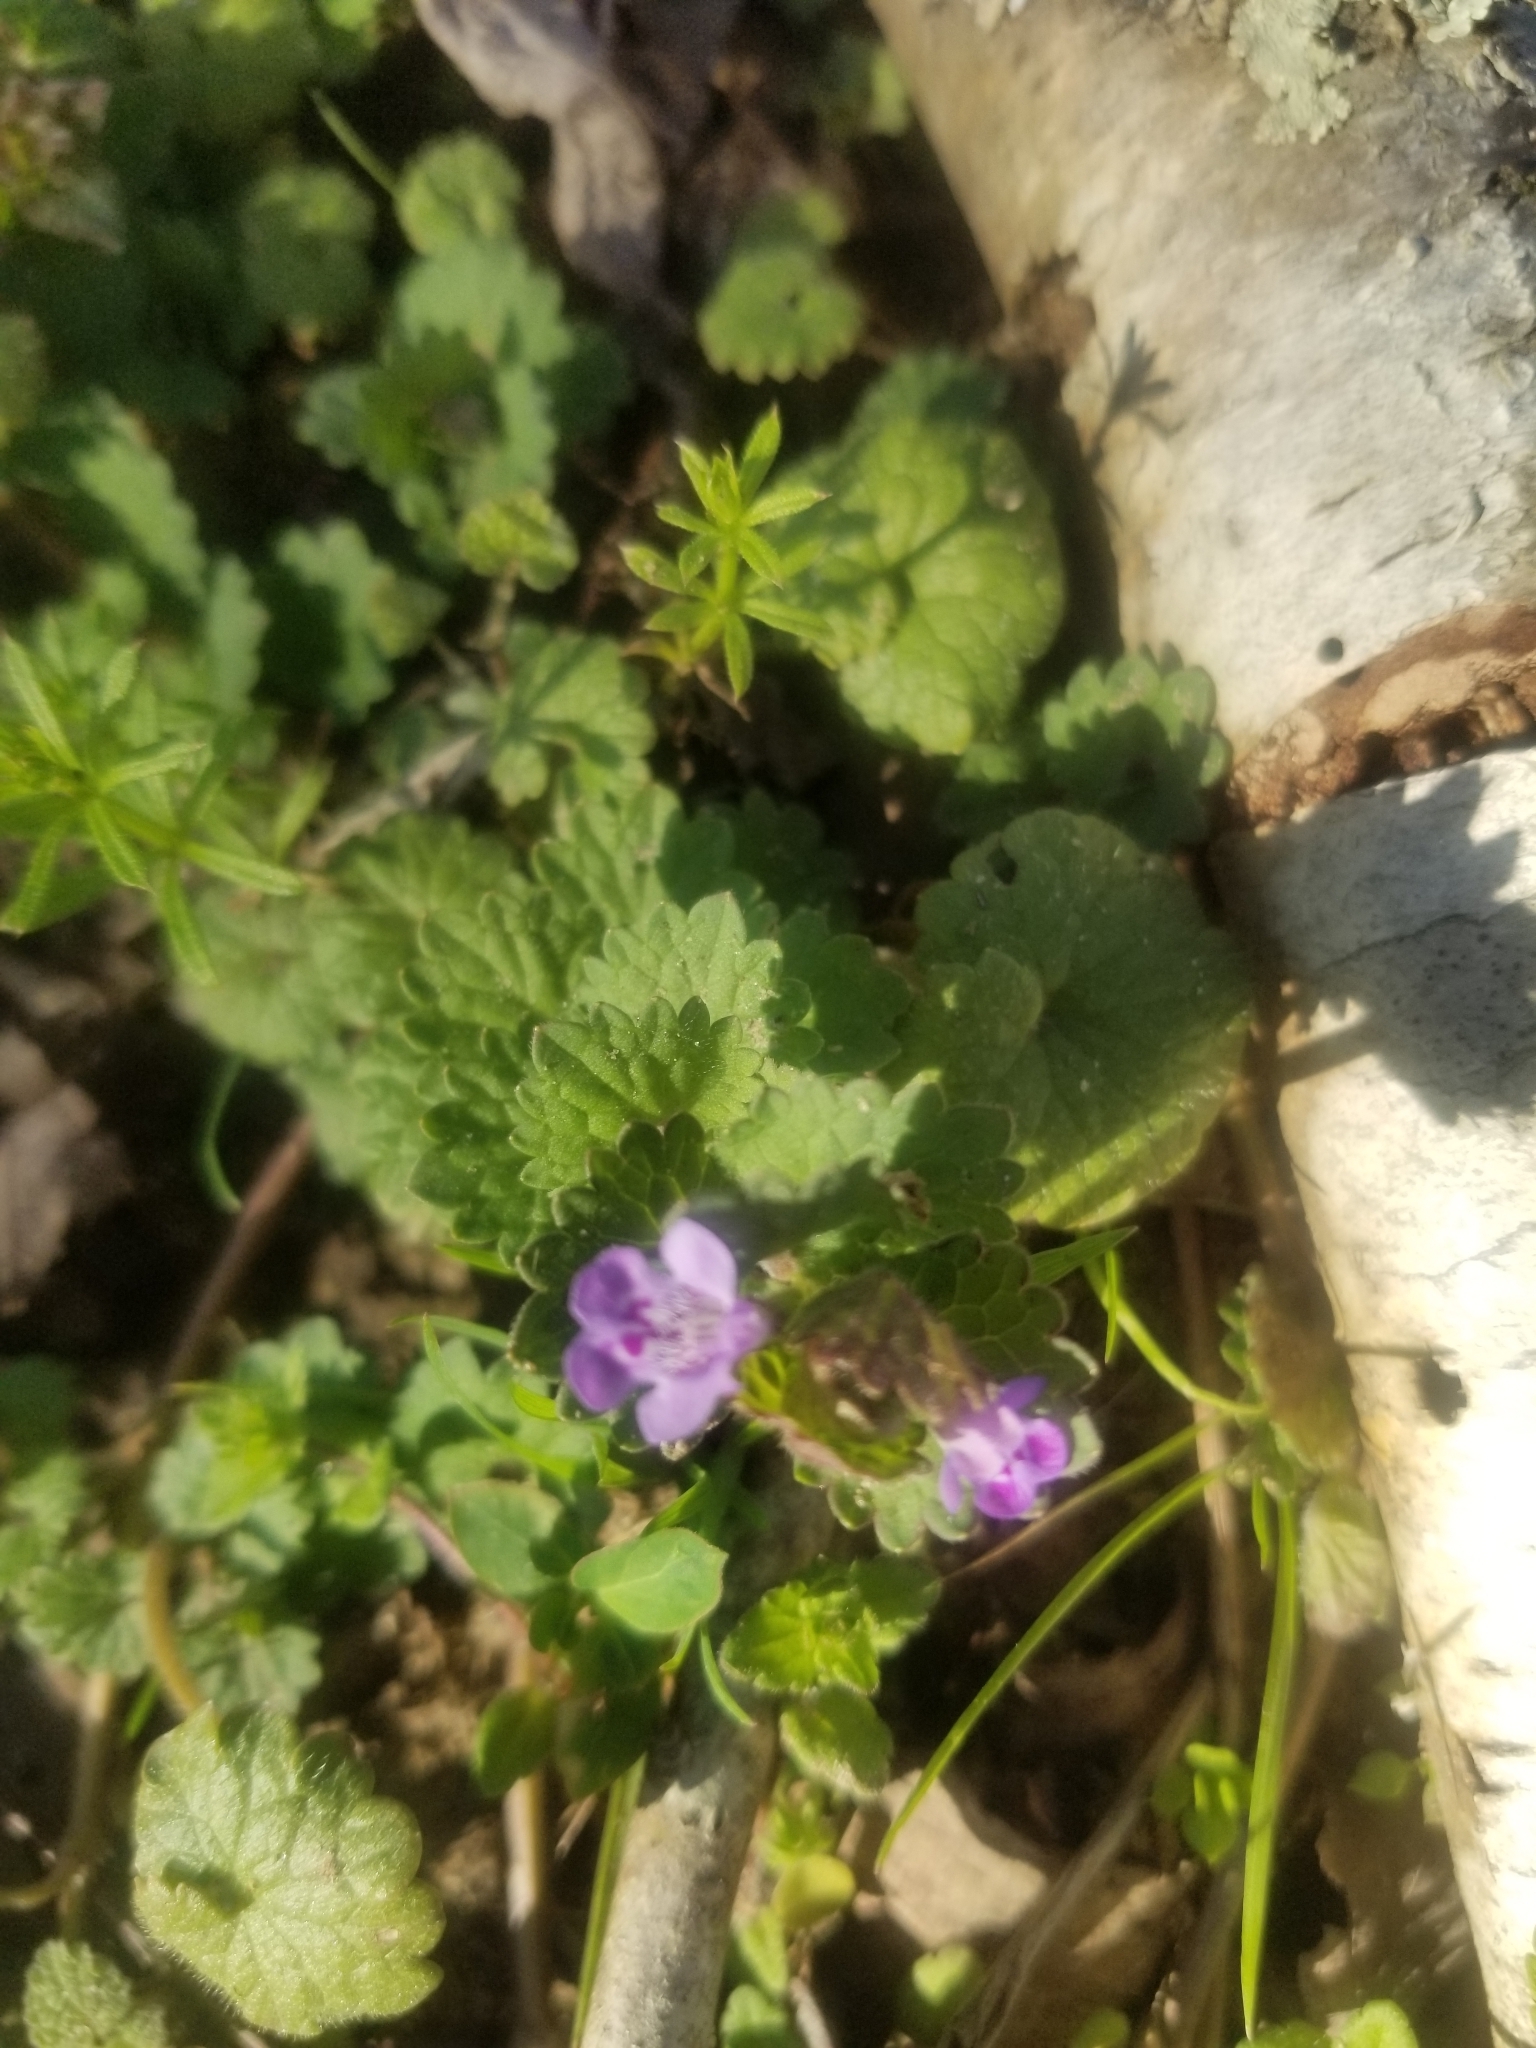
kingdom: Plantae
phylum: Tracheophyta
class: Magnoliopsida
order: Lamiales
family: Lamiaceae
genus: Glechoma
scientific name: Glechoma hederacea
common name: Ground ivy
